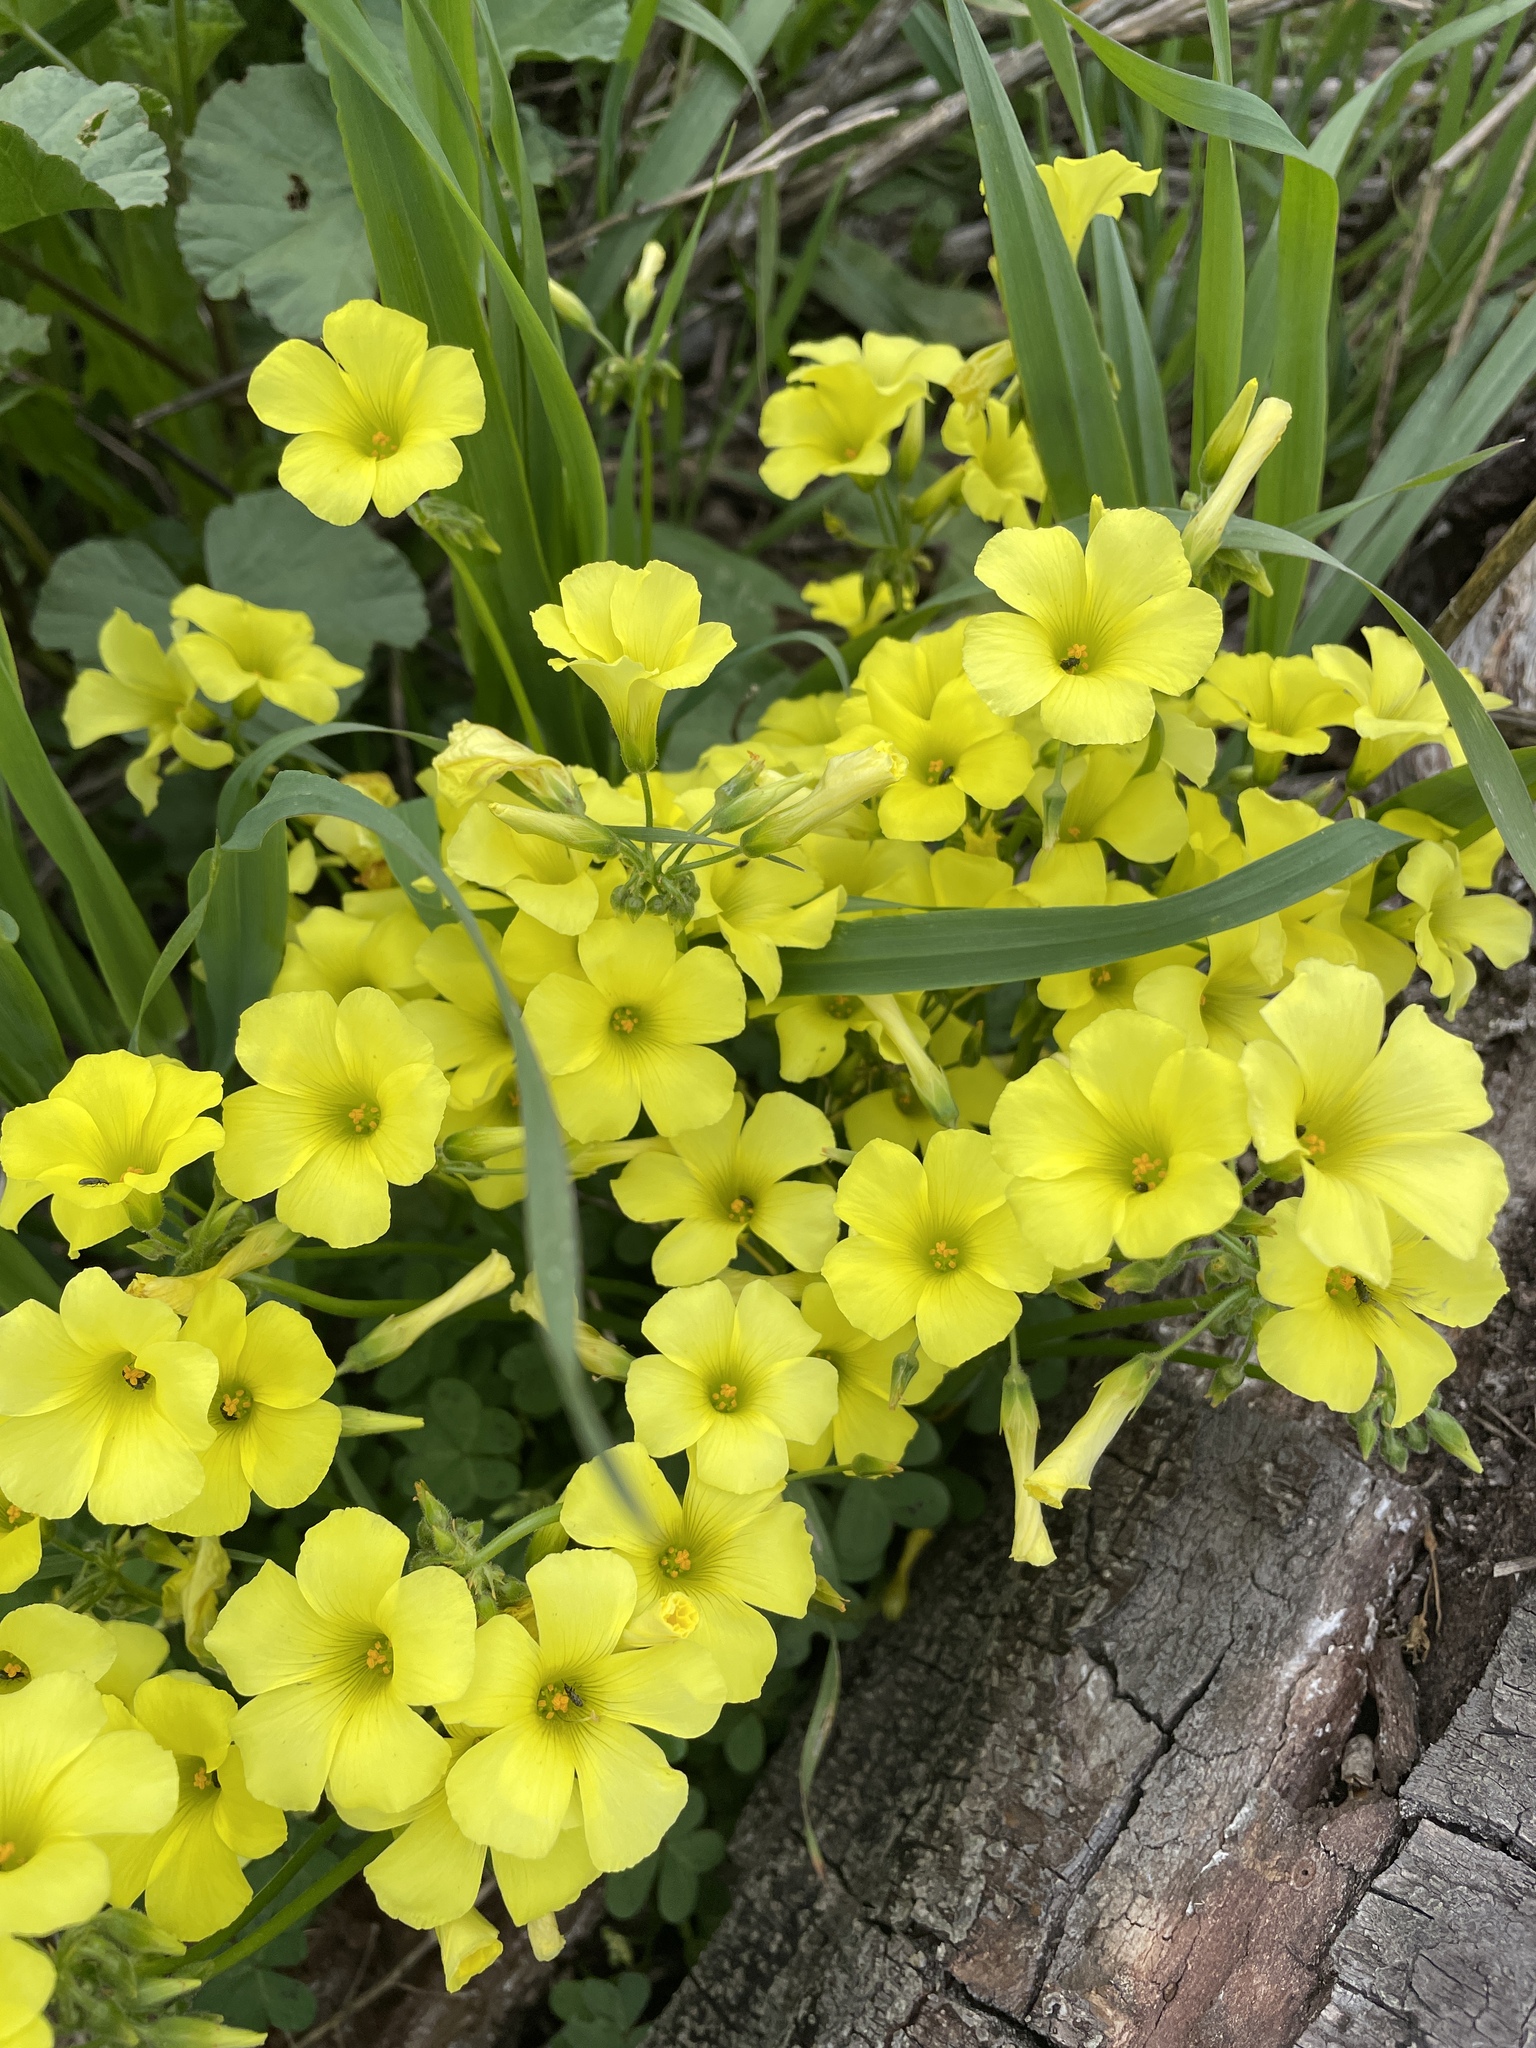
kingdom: Plantae
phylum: Tracheophyta
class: Magnoliopsida
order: Oxalidales
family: Oxalidaceae
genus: Oxalis
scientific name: Oxalis pes-caprae
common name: Bermuda-buttercup
